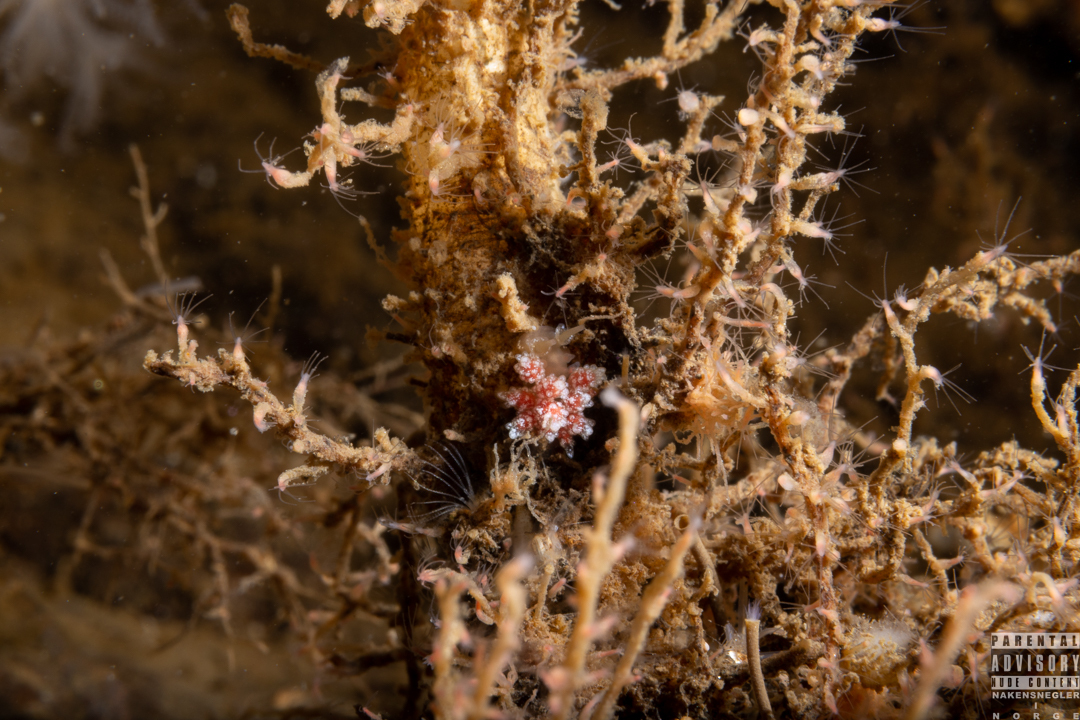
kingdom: Animalia
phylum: Mollusca
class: Gastropoda
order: Nudibranchia
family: Dotidae
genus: Doto
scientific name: Doto fragilis
